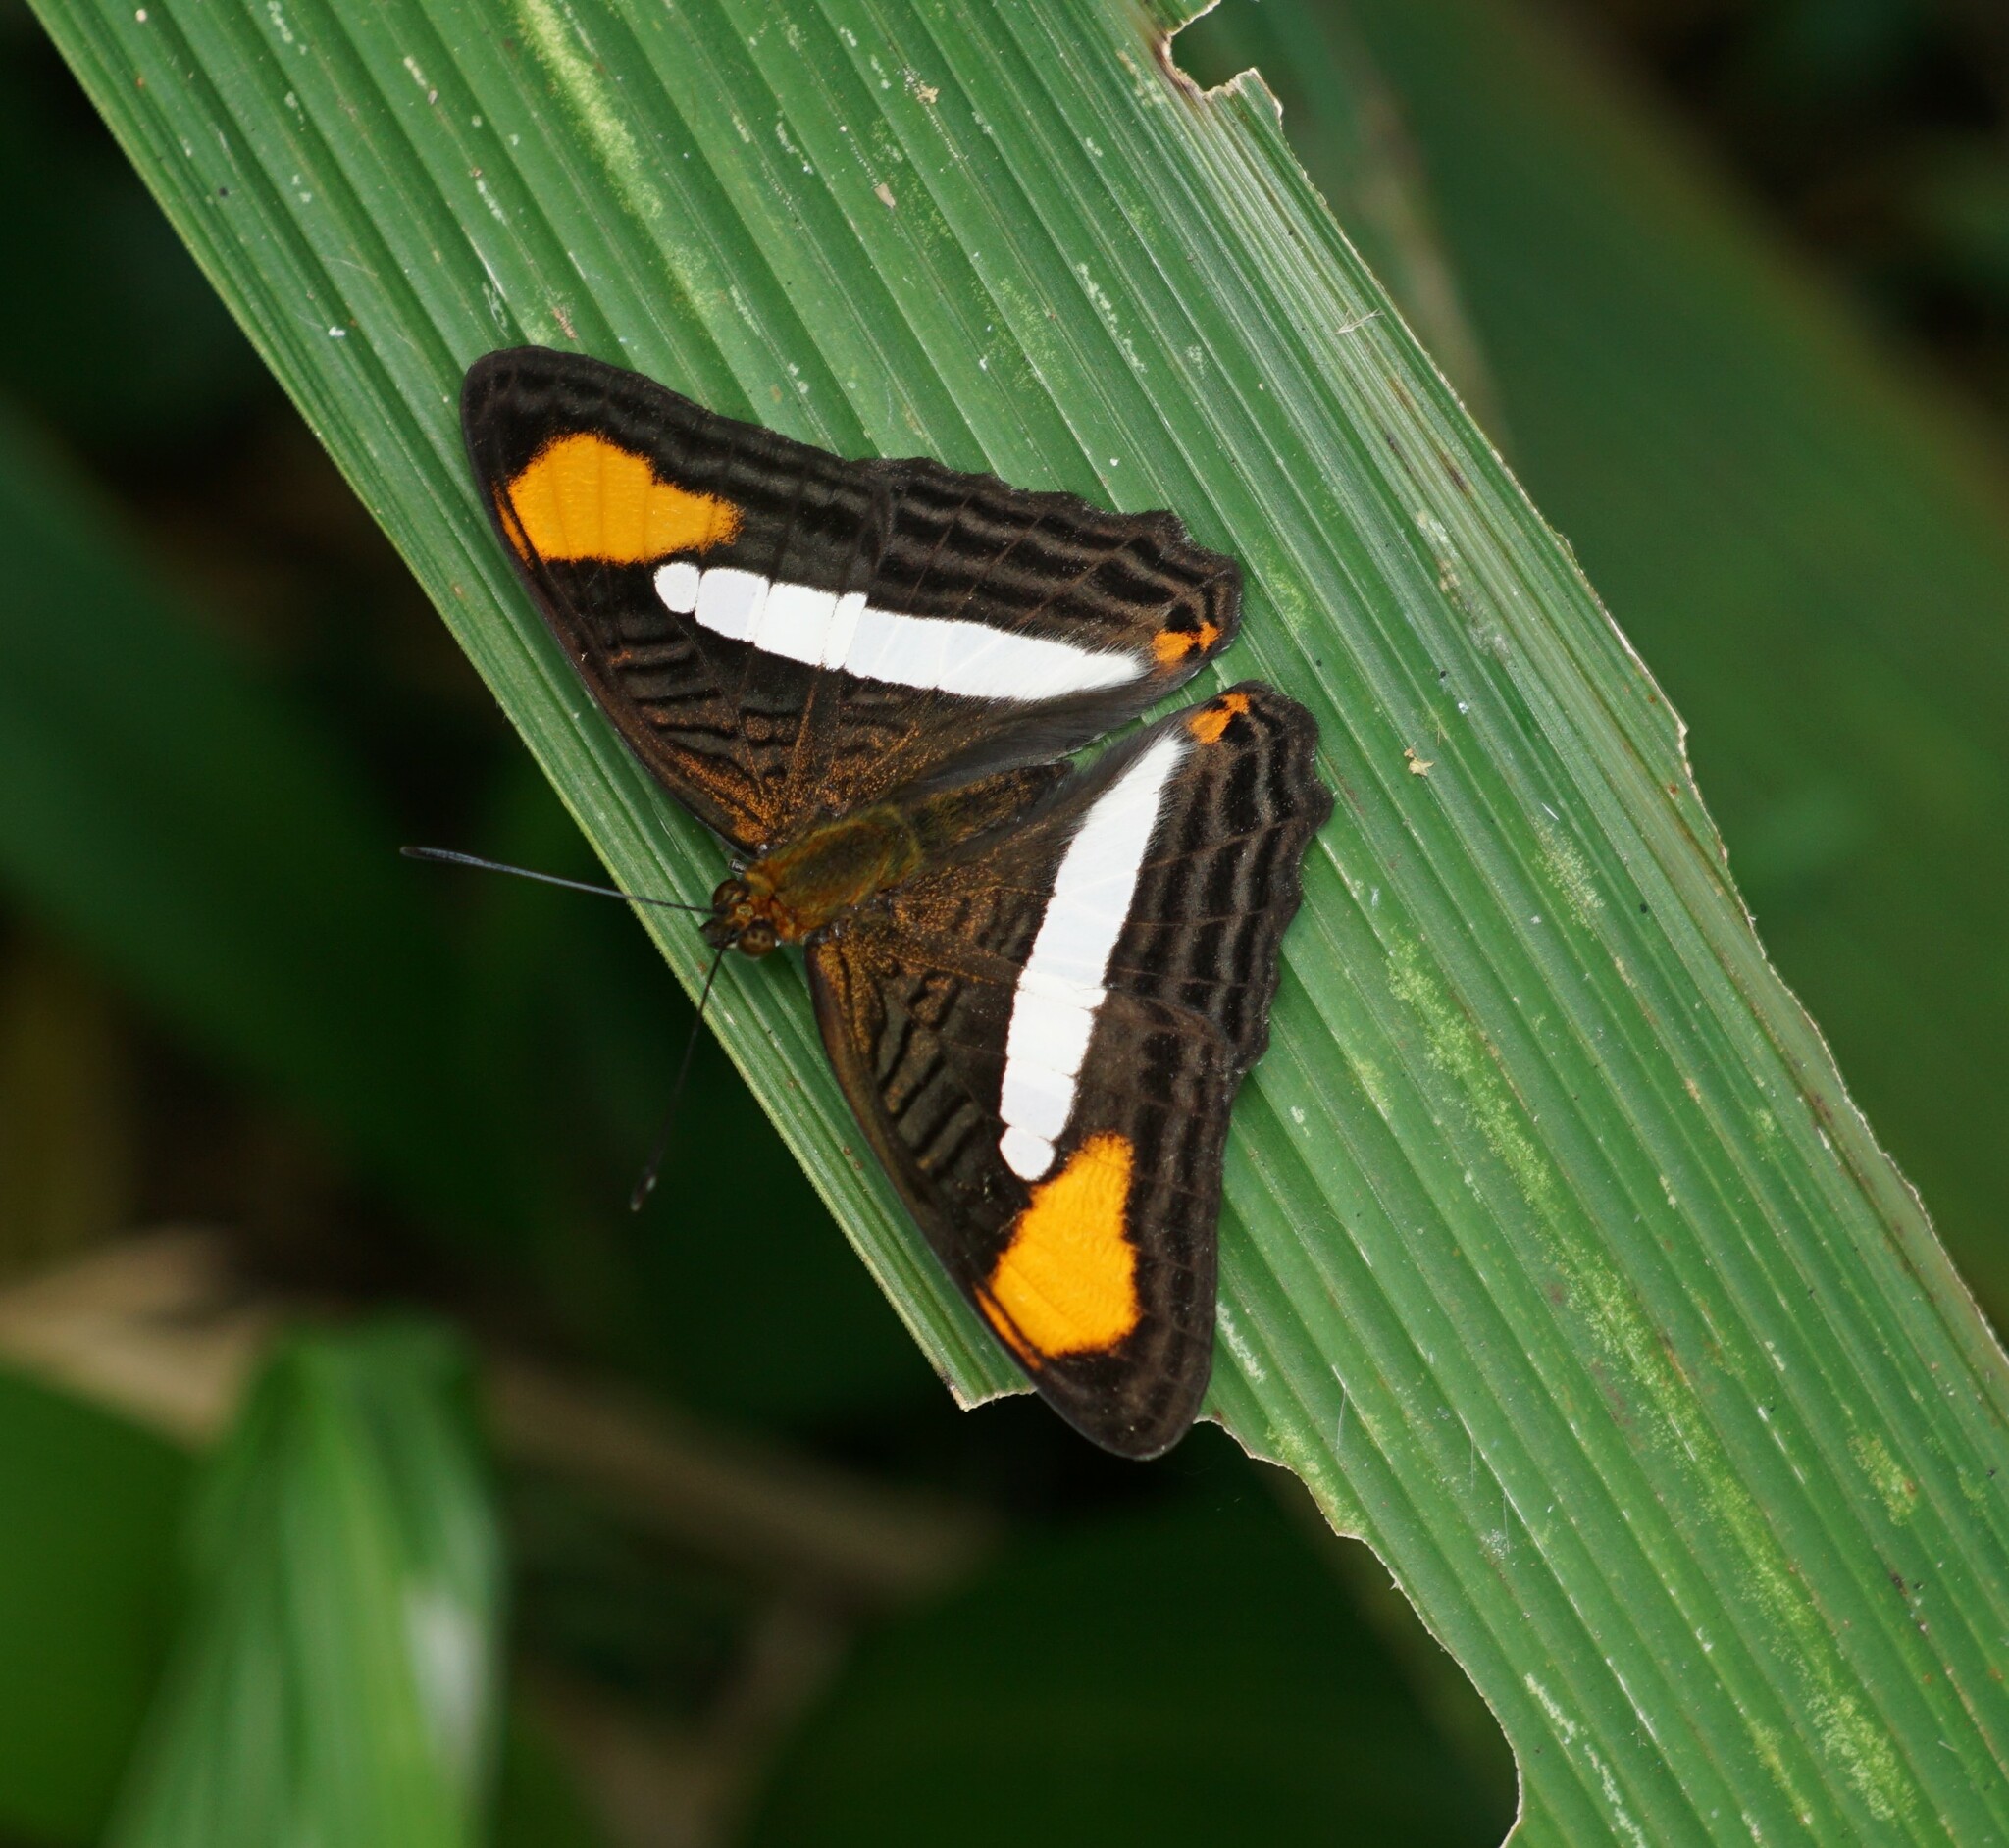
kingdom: Animalia
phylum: Arthropoda
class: Insecta
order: Lepidoptera
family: Nymphalidae
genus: Limenitis
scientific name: Limenitis syma
